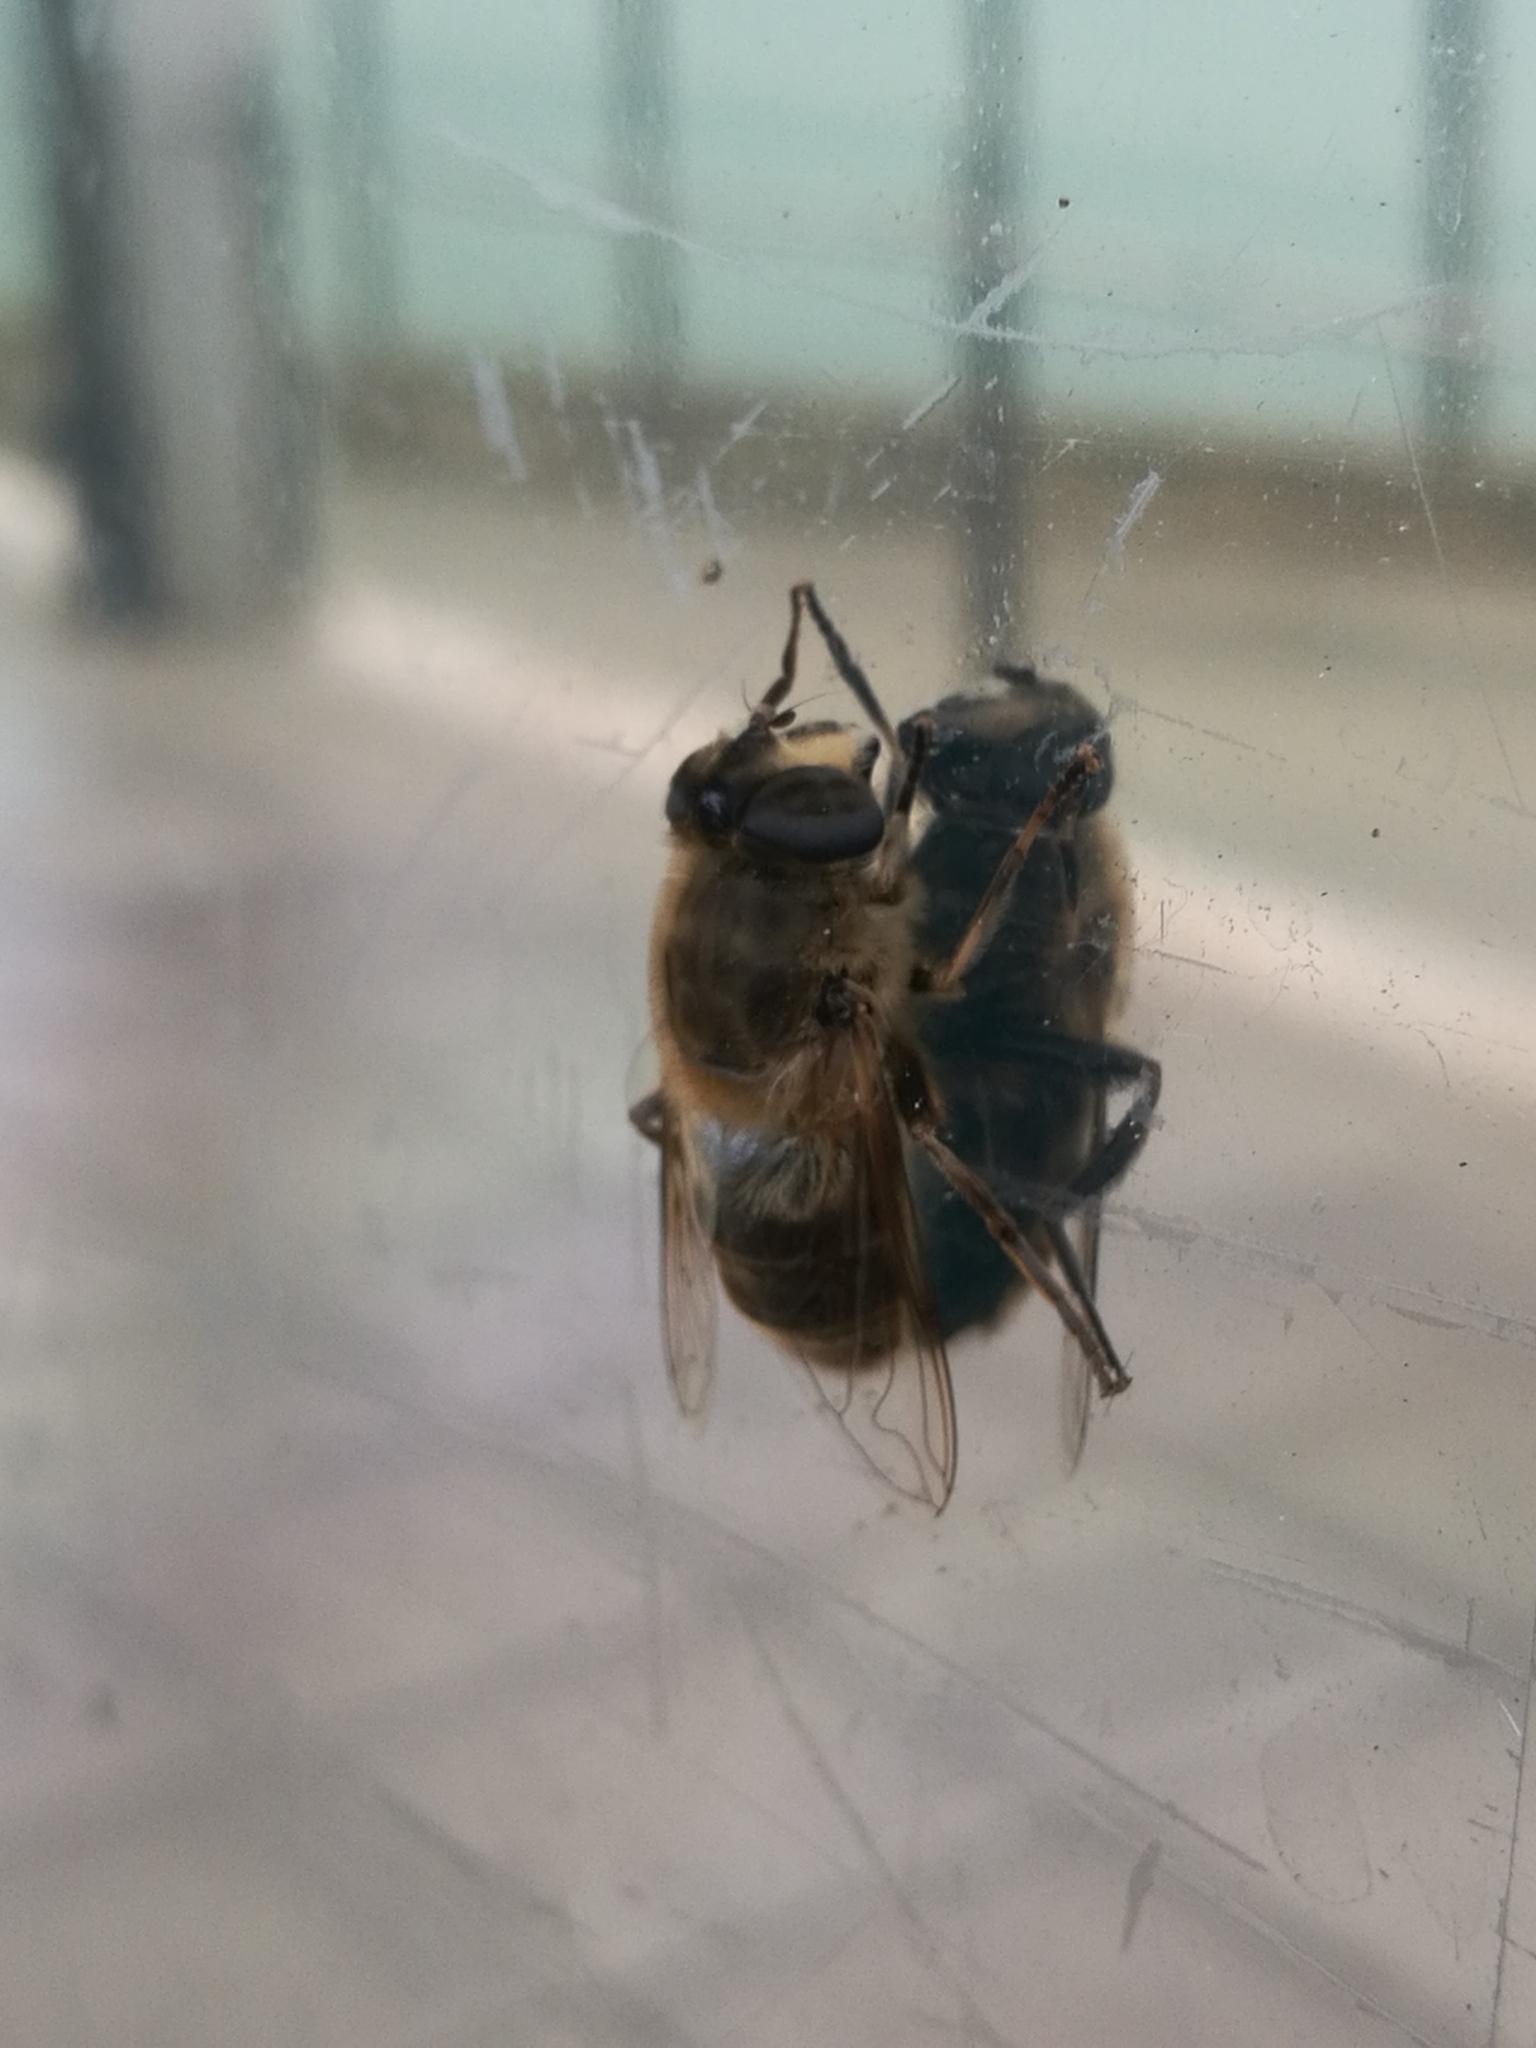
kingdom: Animalia
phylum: Arthropoda
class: Insecta
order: Diptera
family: Syrphidae
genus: Eristalis
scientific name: Eristalis tenax
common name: Drone fly
